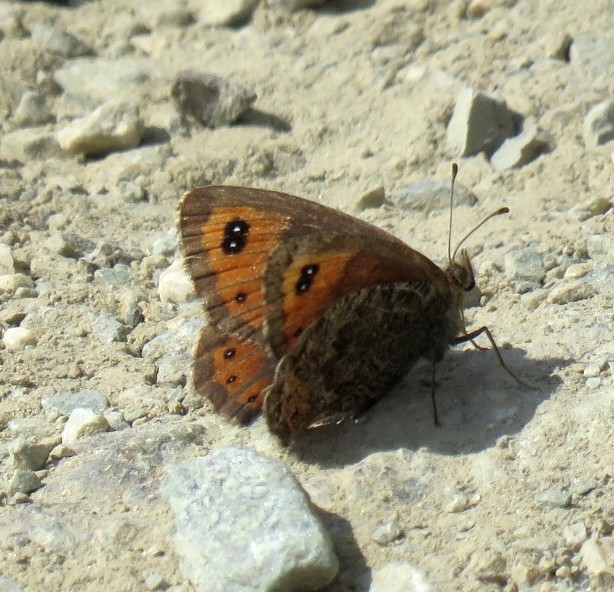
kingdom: Animalia
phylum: Arthropoda
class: Insecta
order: Lepidoptera
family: Nymphalidae
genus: Erebia
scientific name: Erebia montanus
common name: Marbled ringlet
